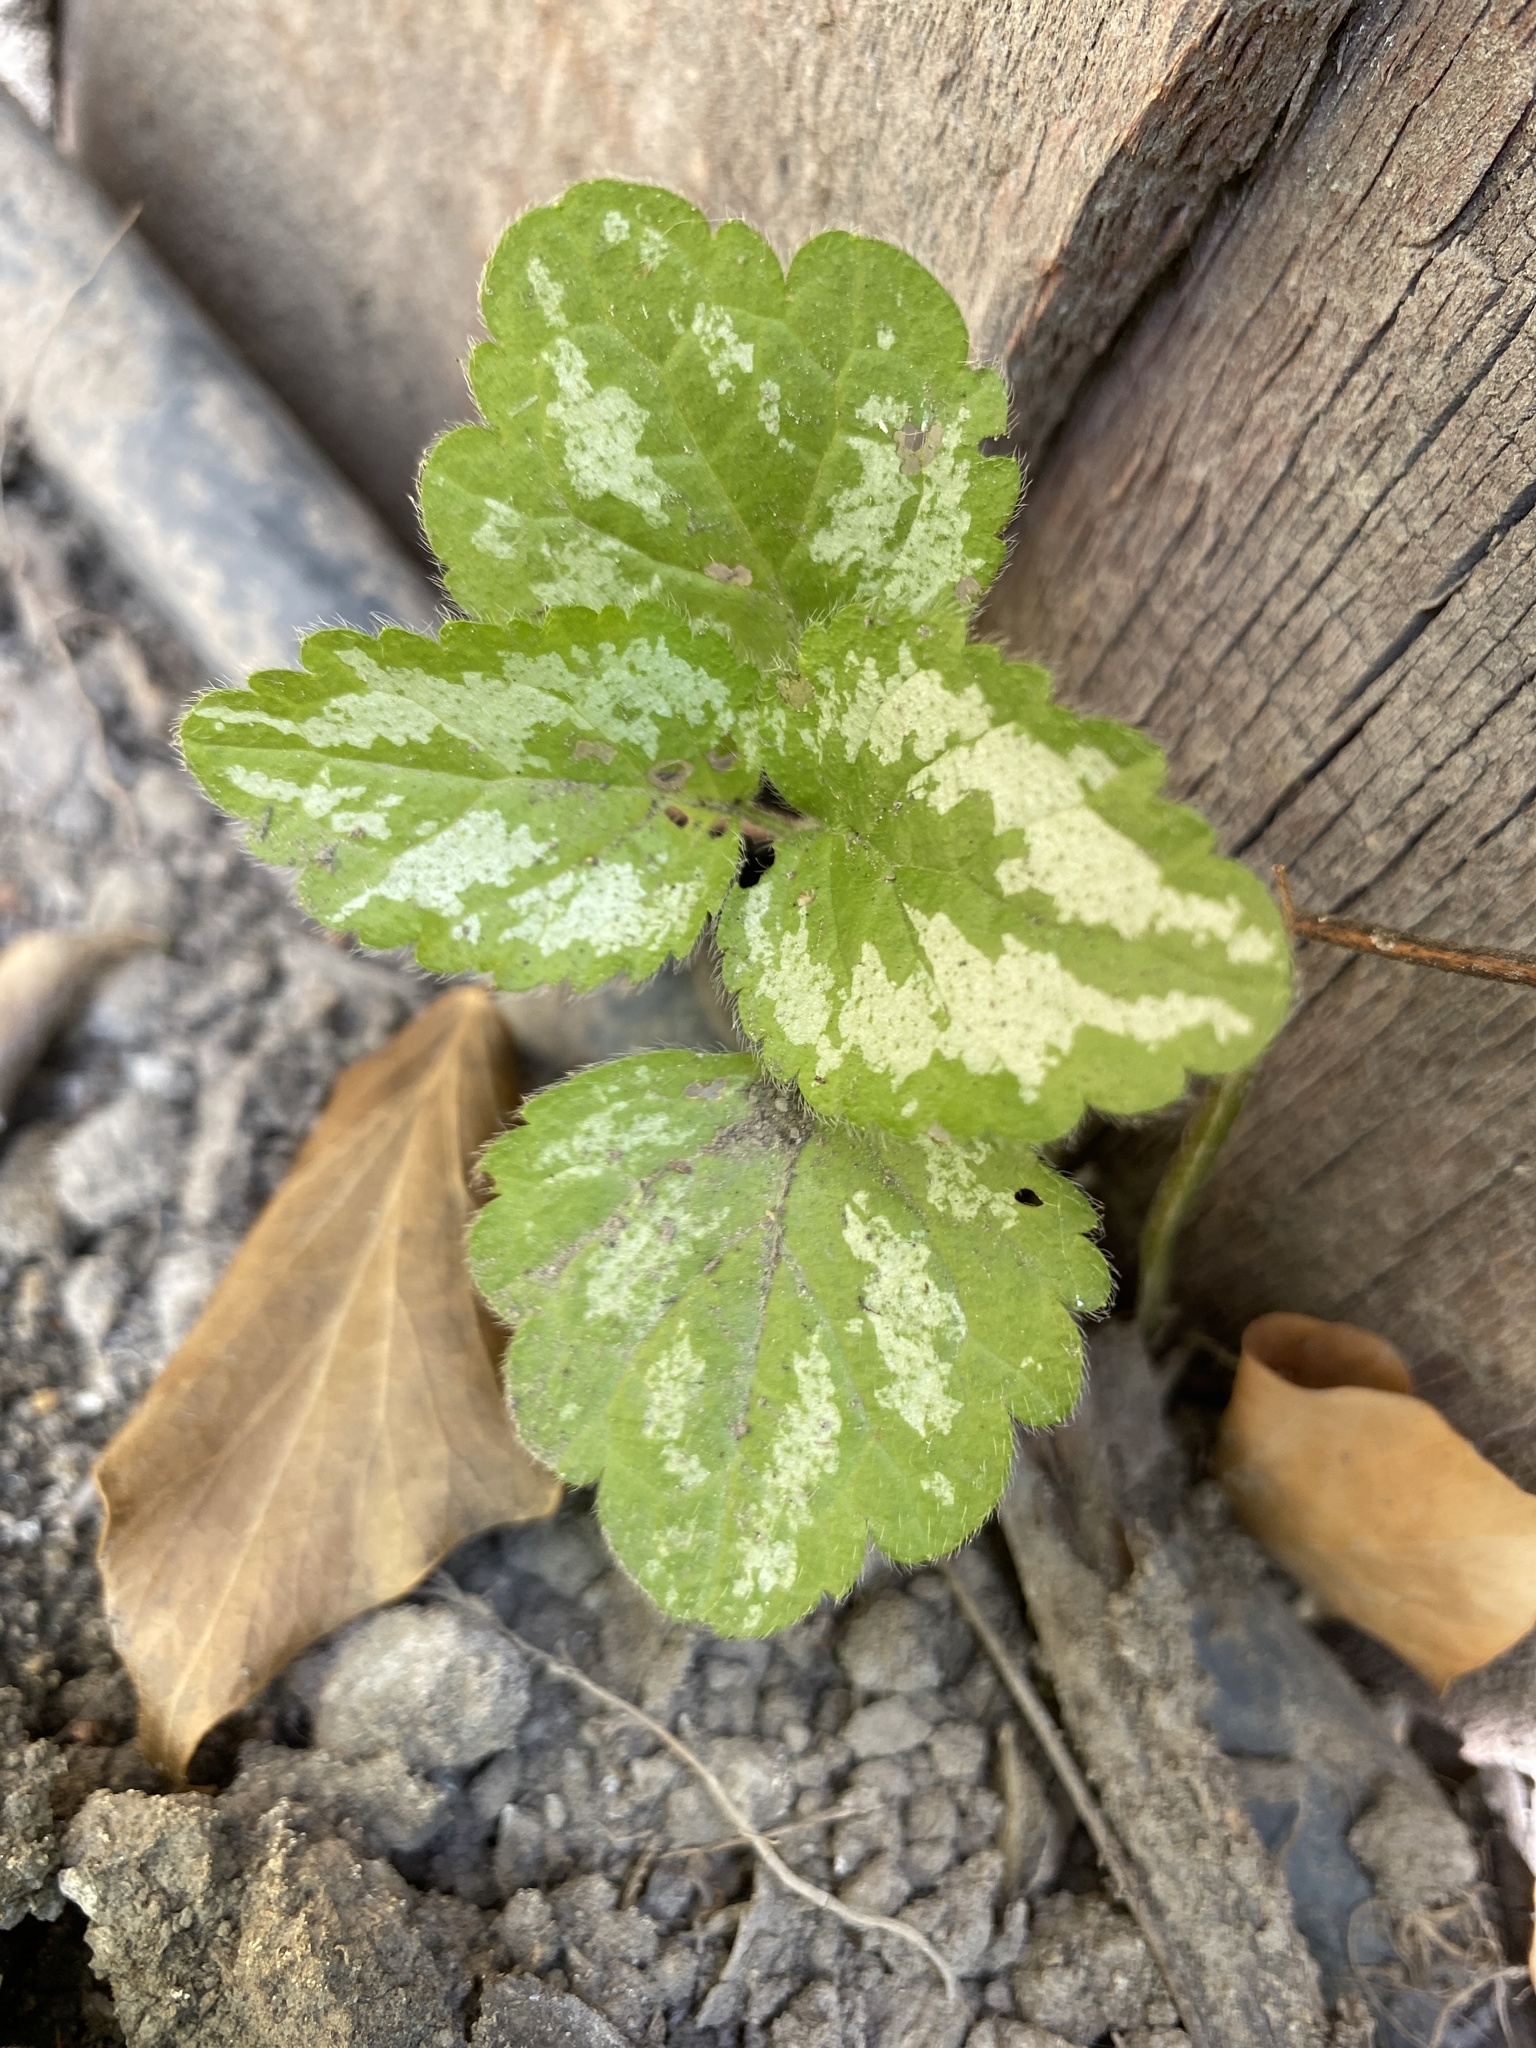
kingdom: Plantae
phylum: Tracheophyta
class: Magnoliopsida
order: Lamiales
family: Lamiaceae
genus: Lamium
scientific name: Lamium galeobdolon
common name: Yellow archangel
